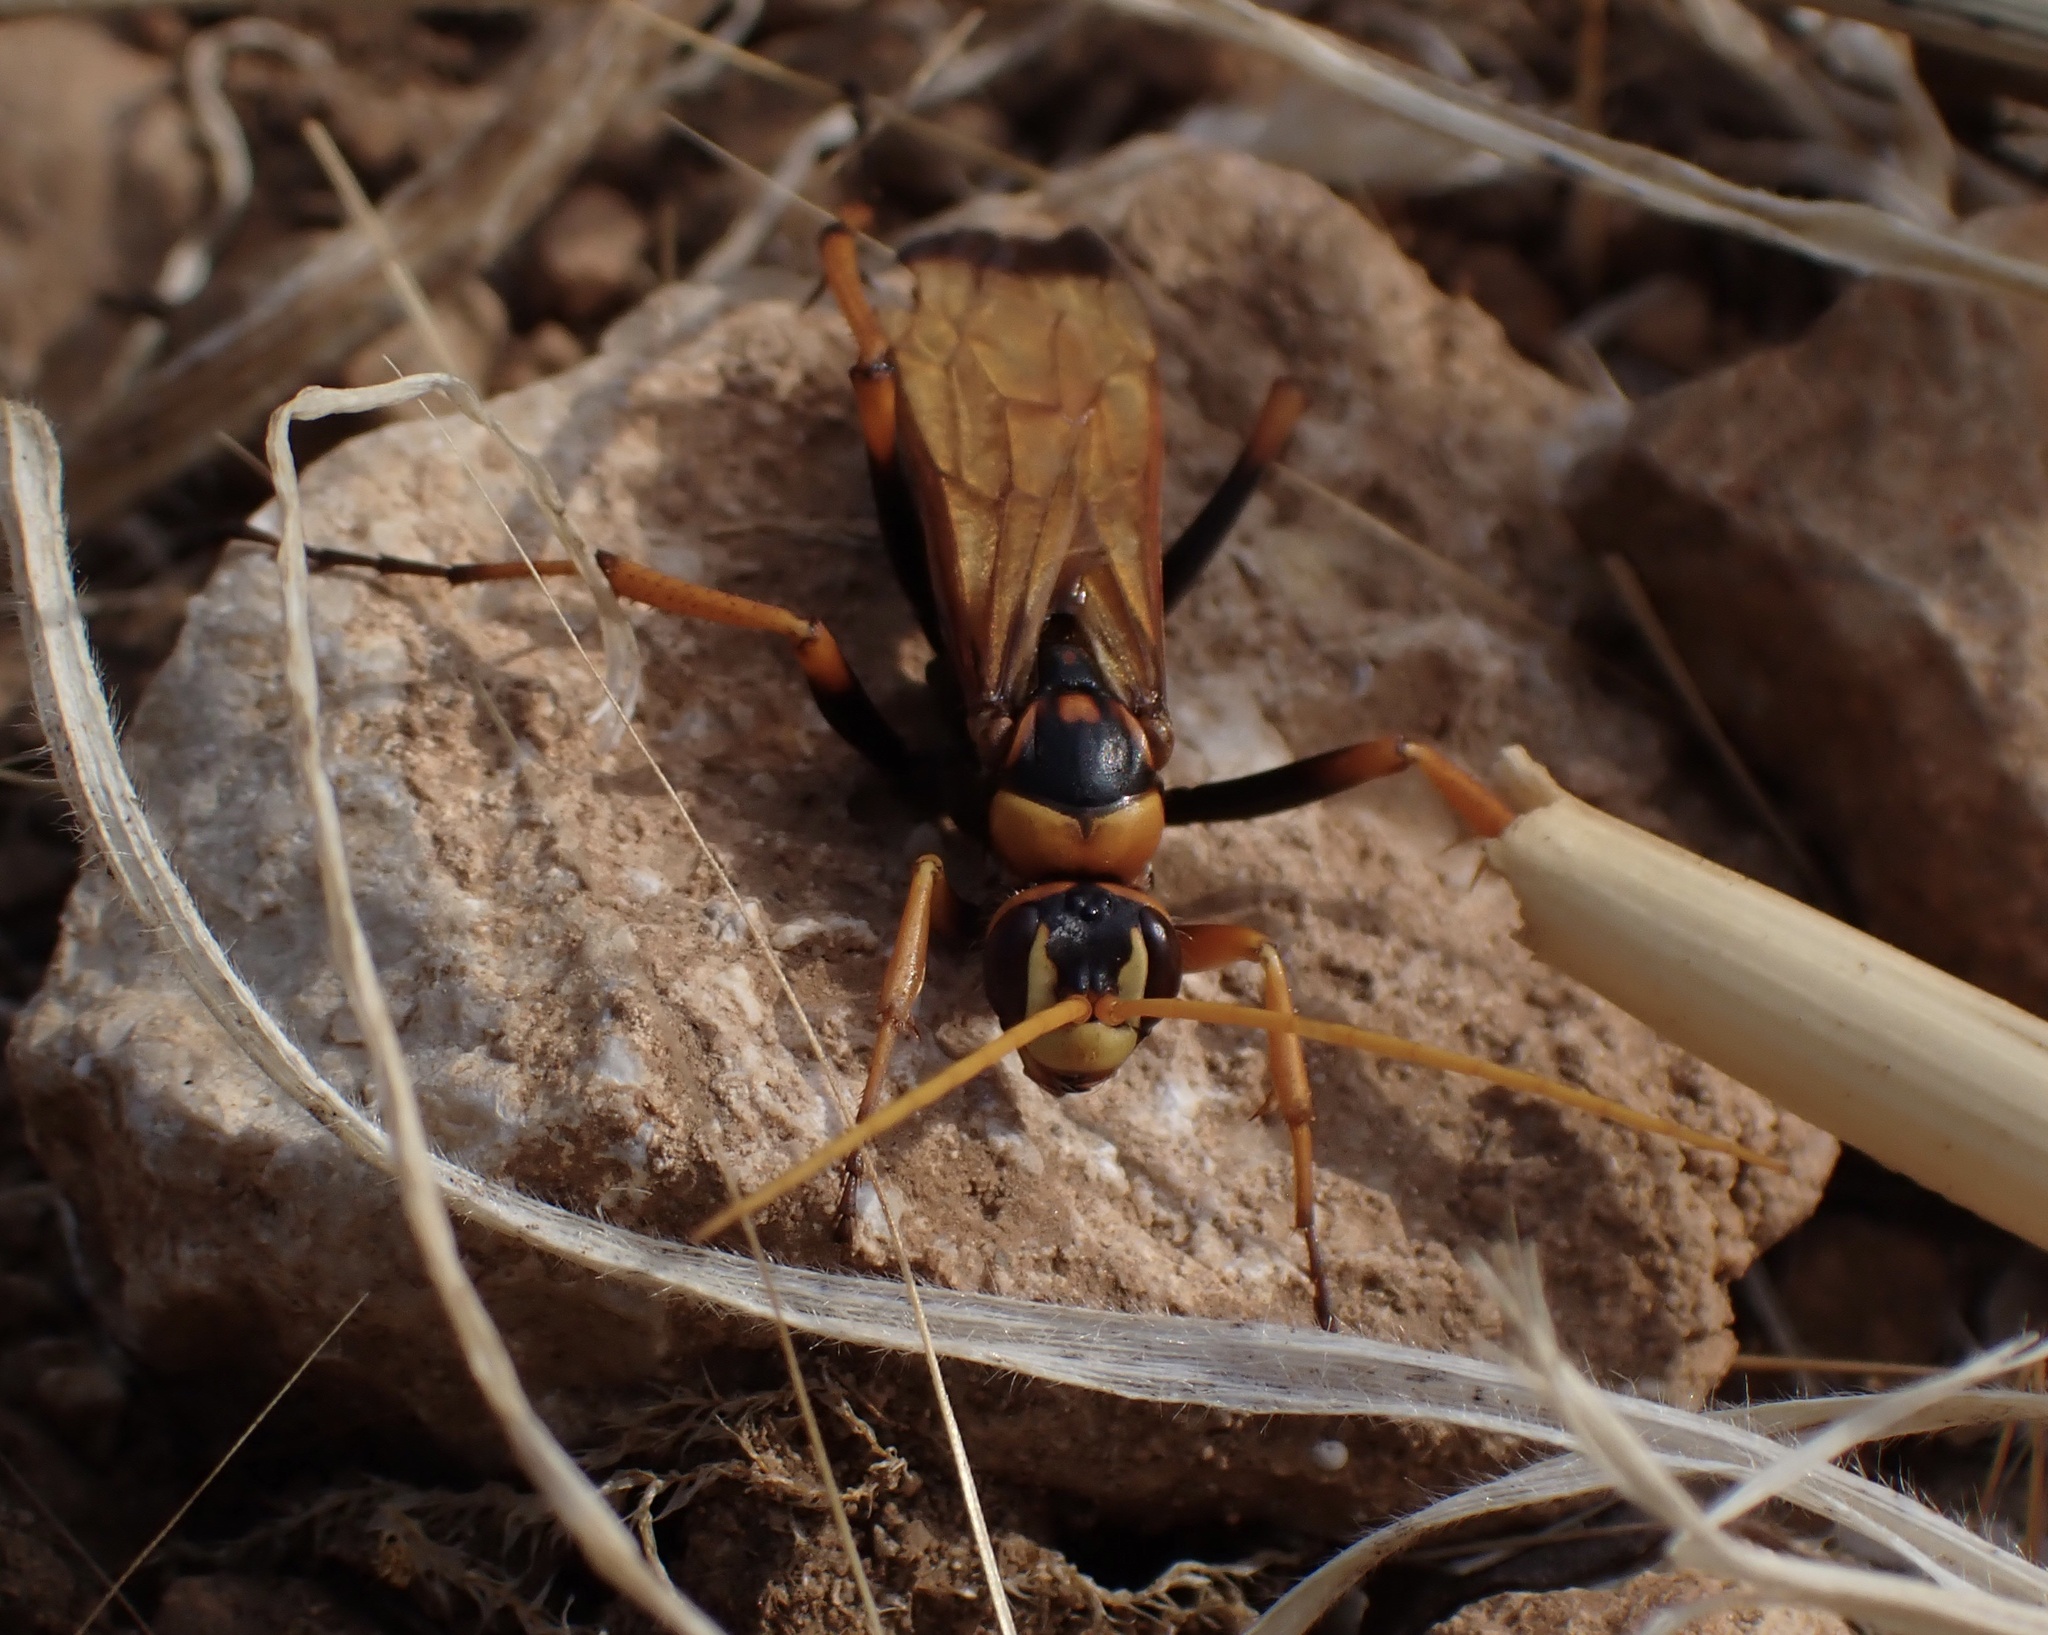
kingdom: Animalia
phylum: Arthropoda
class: Insecta
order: Hymenoptera
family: Pompilidae
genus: Cryptocheilus
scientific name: Cryptocheilus alternatus
